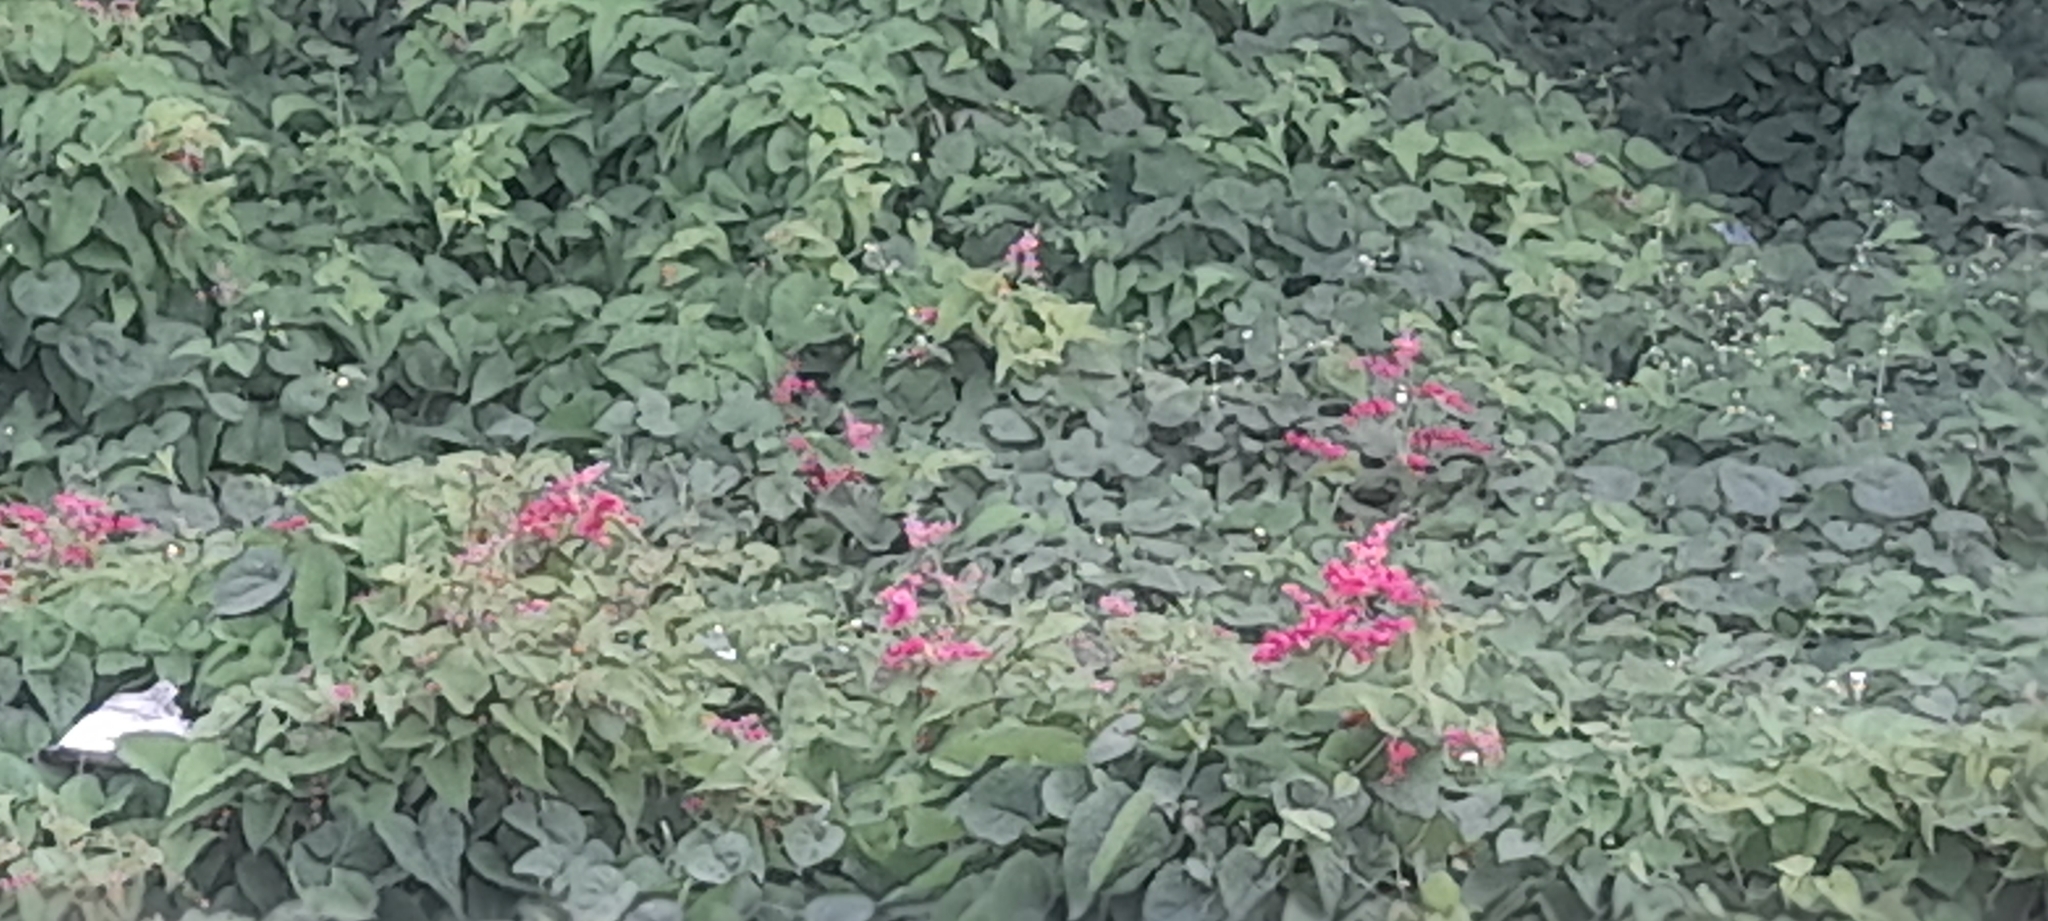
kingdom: Plantae
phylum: Tracheophyta
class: Magnoliopsida
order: Caryophyllales
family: Polygonaceae
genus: Antigonon
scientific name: Antigonon leptopus
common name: Coral vine
